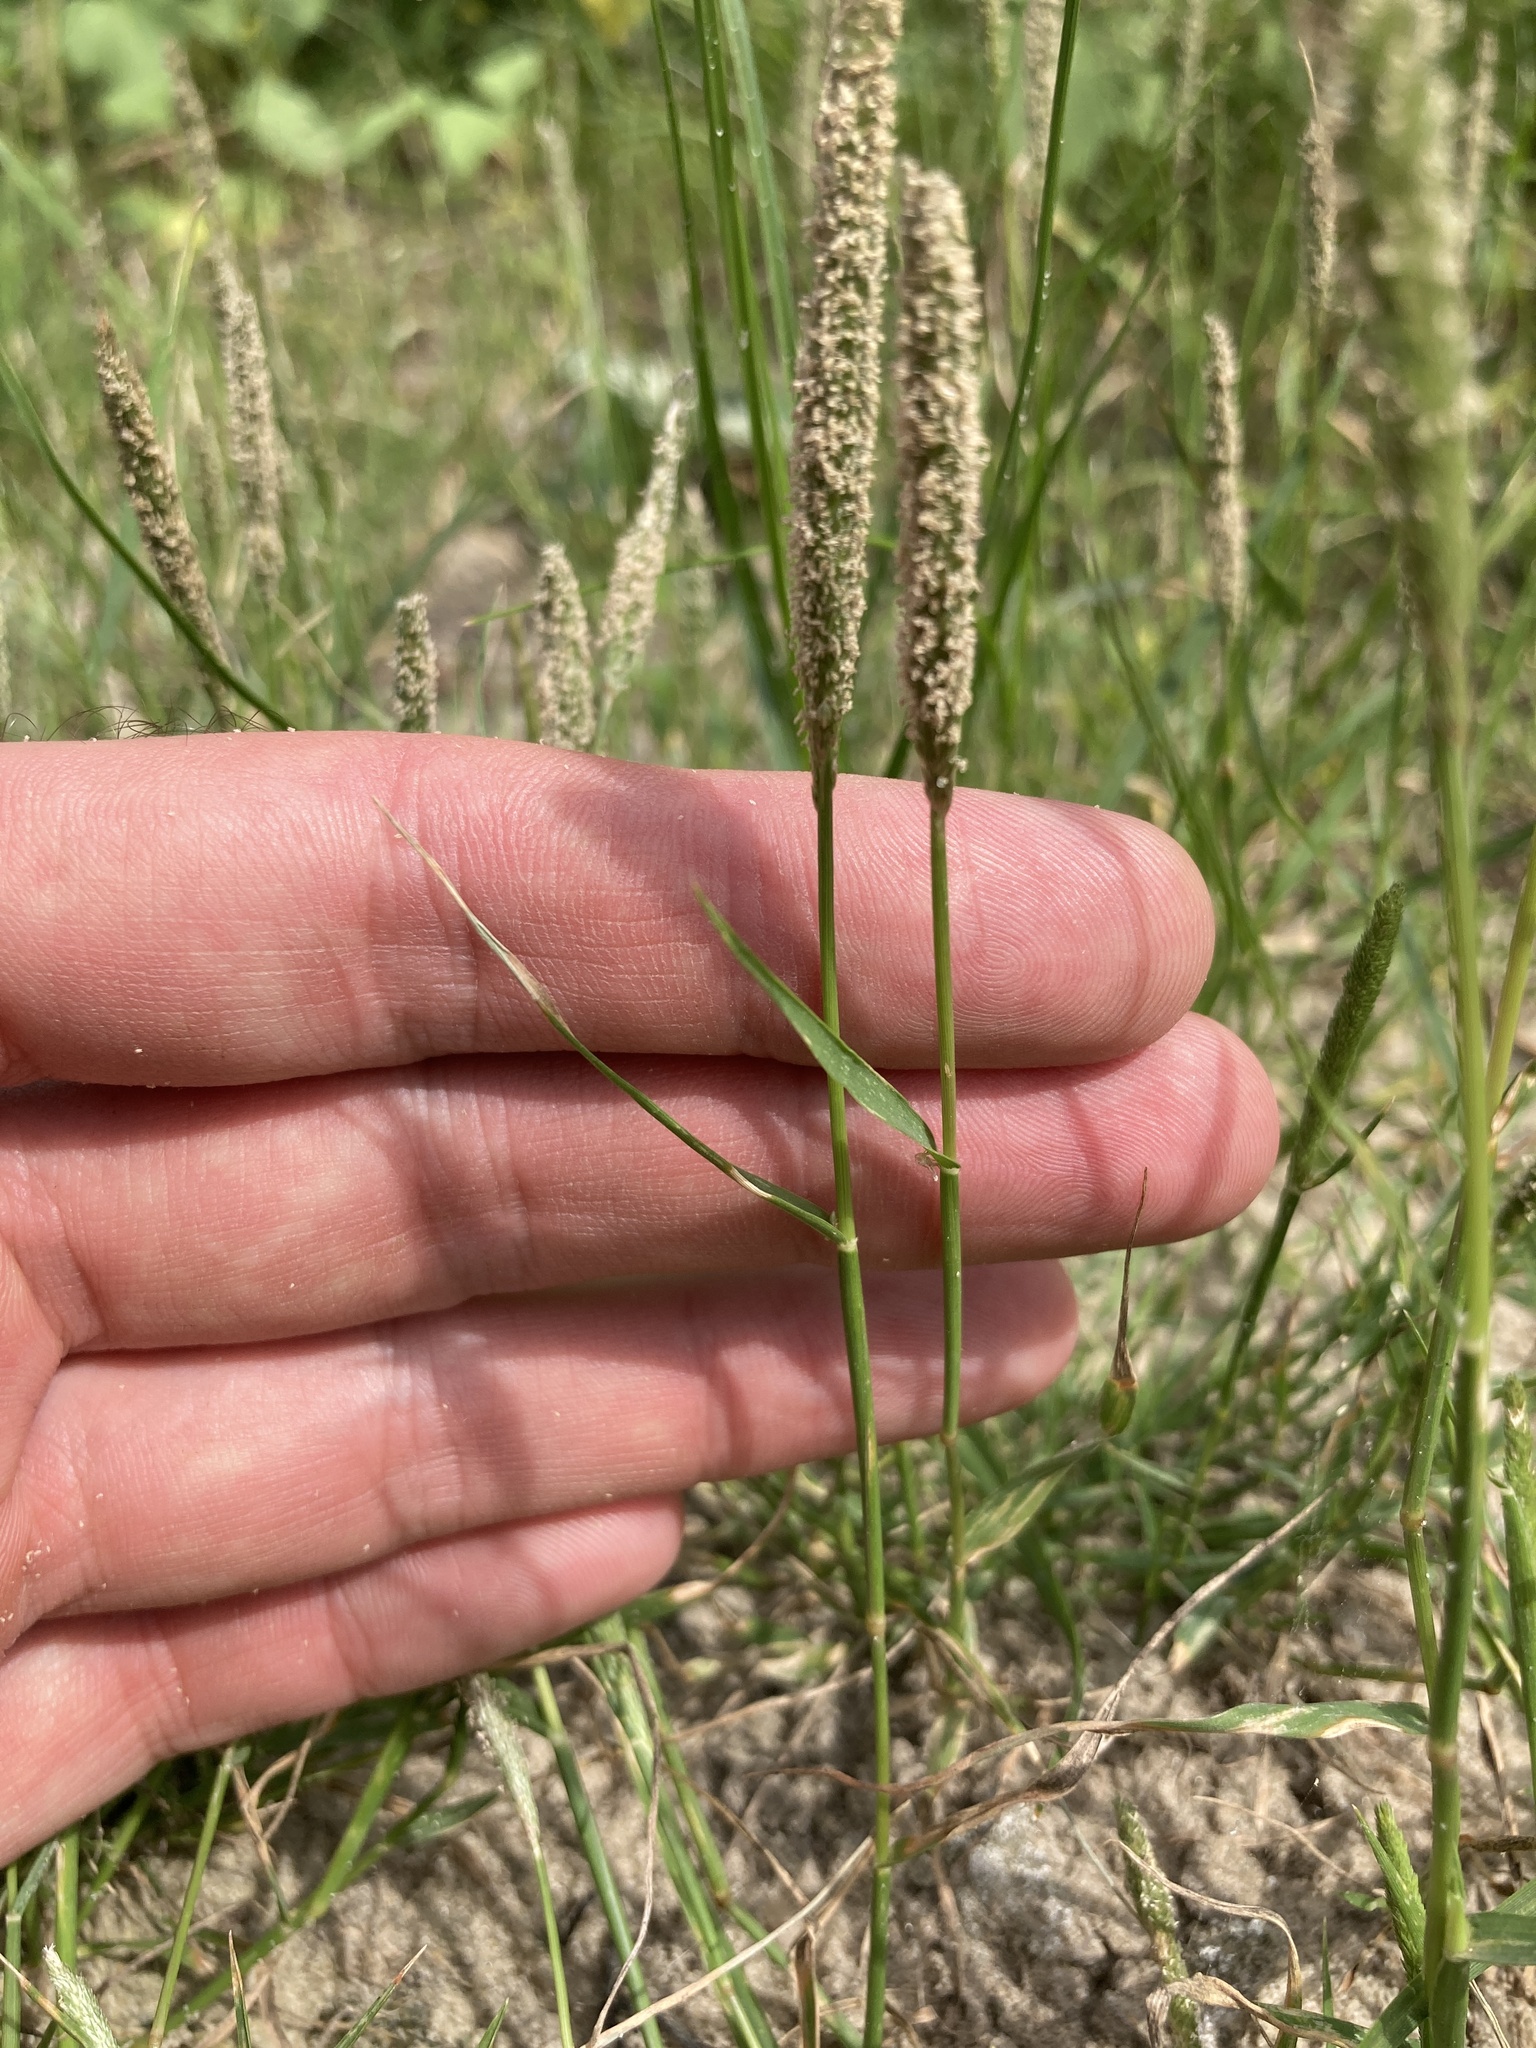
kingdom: Plantae
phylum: Tracheophyta
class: Liliopsida
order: Poales
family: Poaceae
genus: Sporobolus
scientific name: Sporobolus alopecuroides
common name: Foxtail pricklegrass
